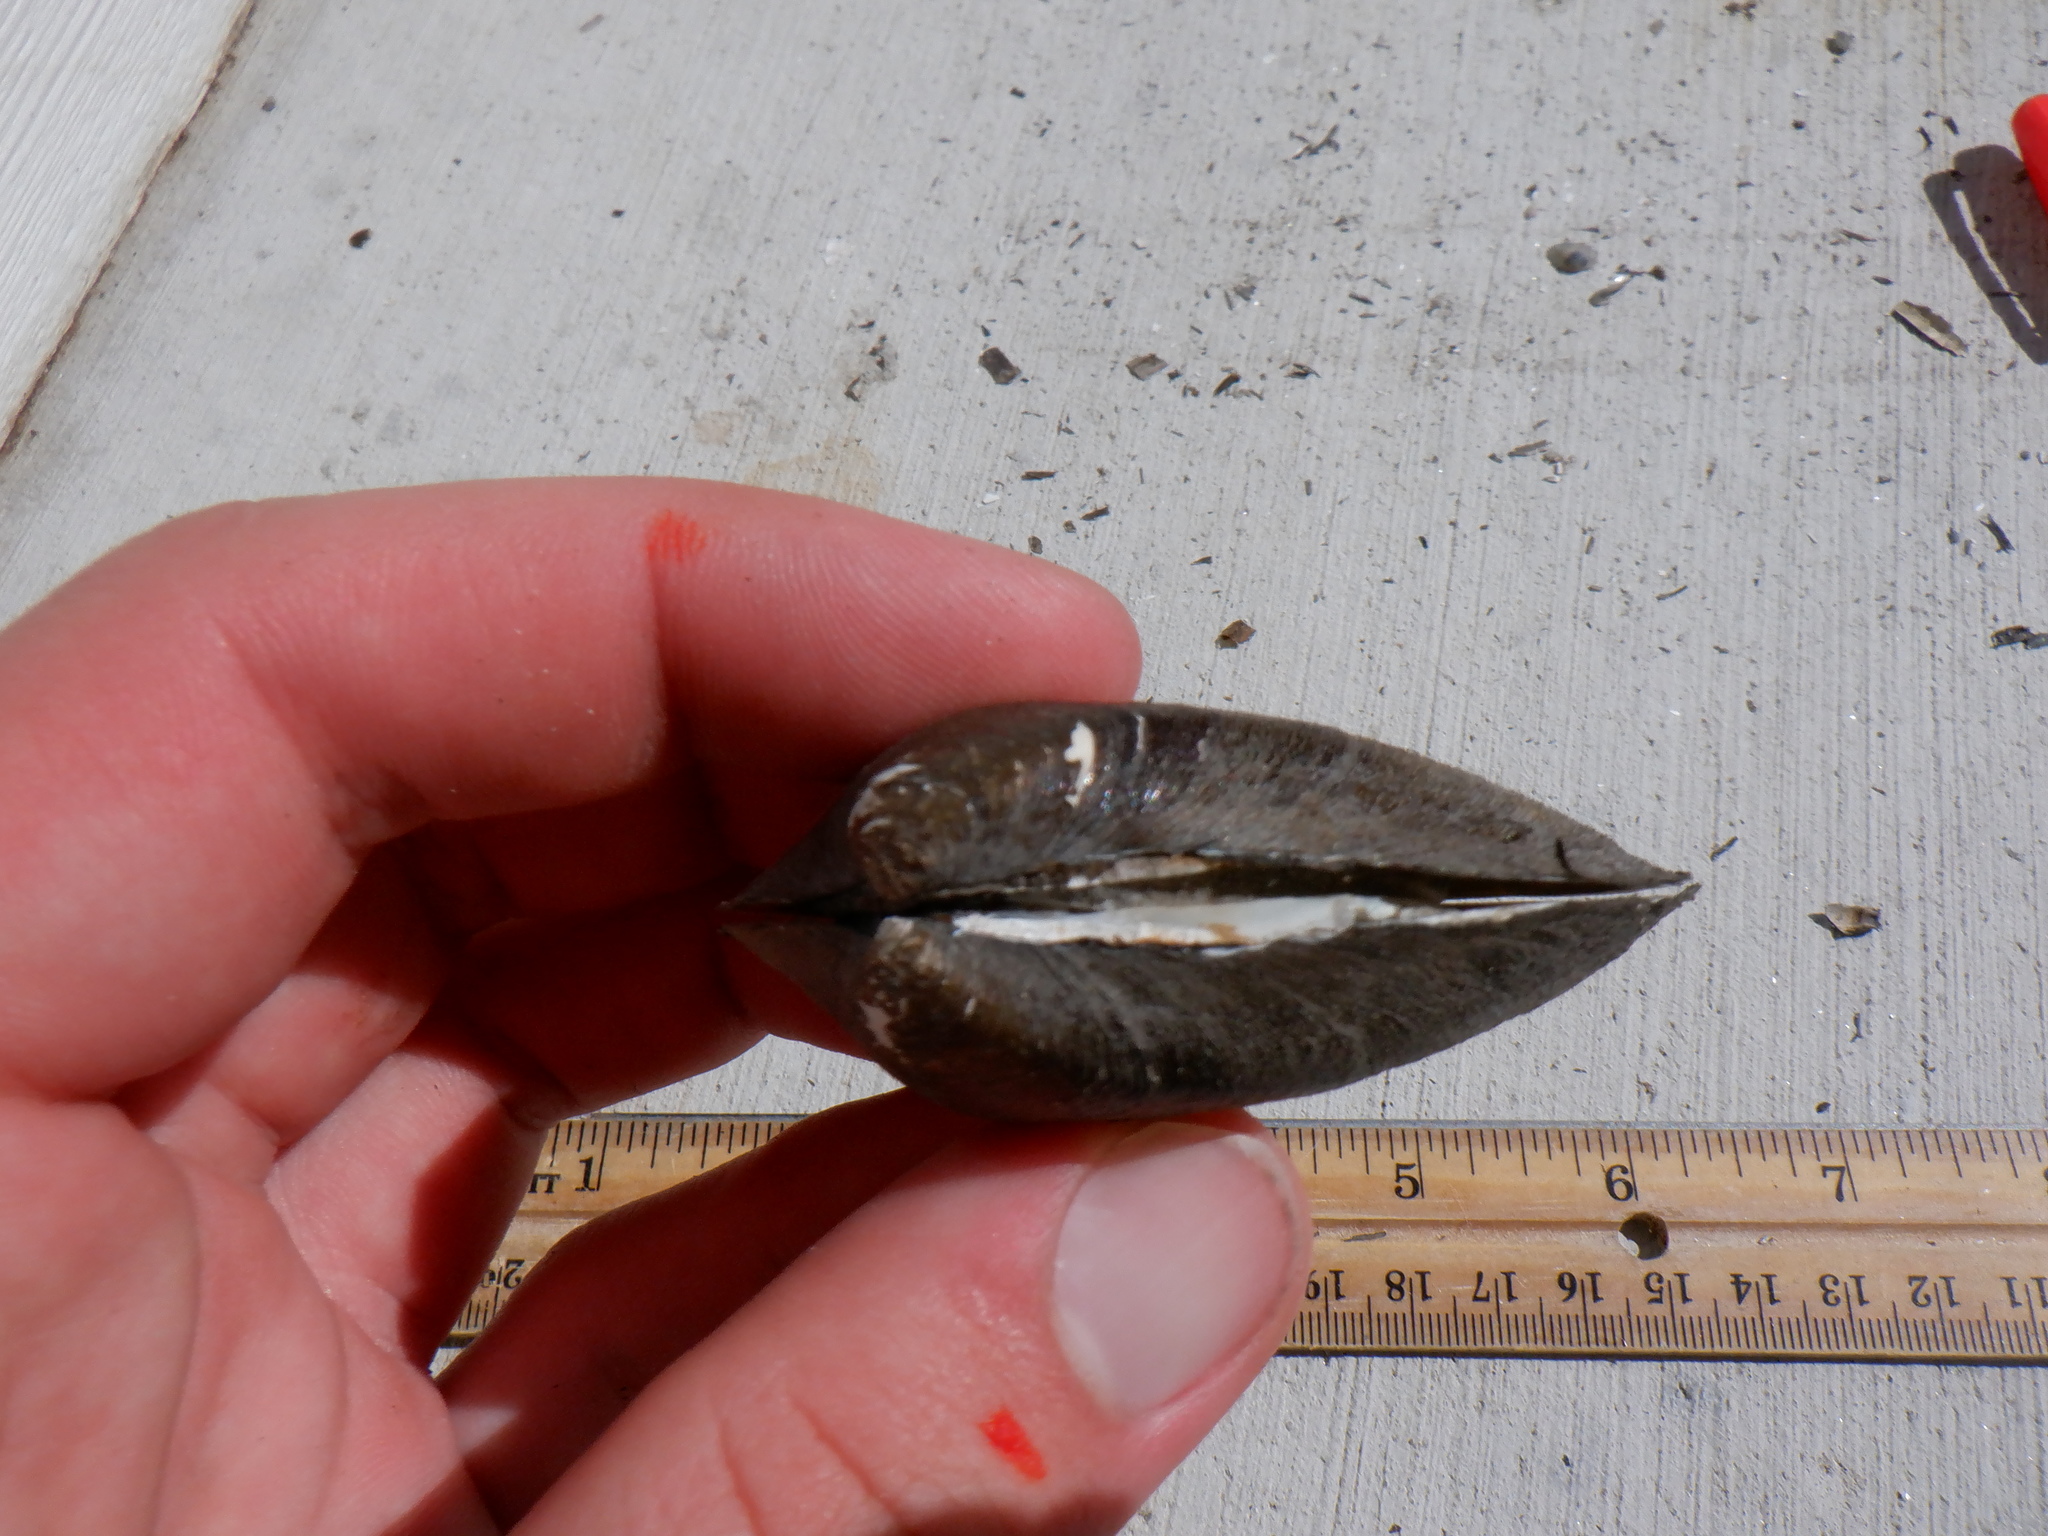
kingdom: Animalia
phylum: Mollusca
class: Bivalvia
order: Unionida
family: Unionidae
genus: Fusconaia
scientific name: Fusconaia flava
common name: Wabash pigtoe
